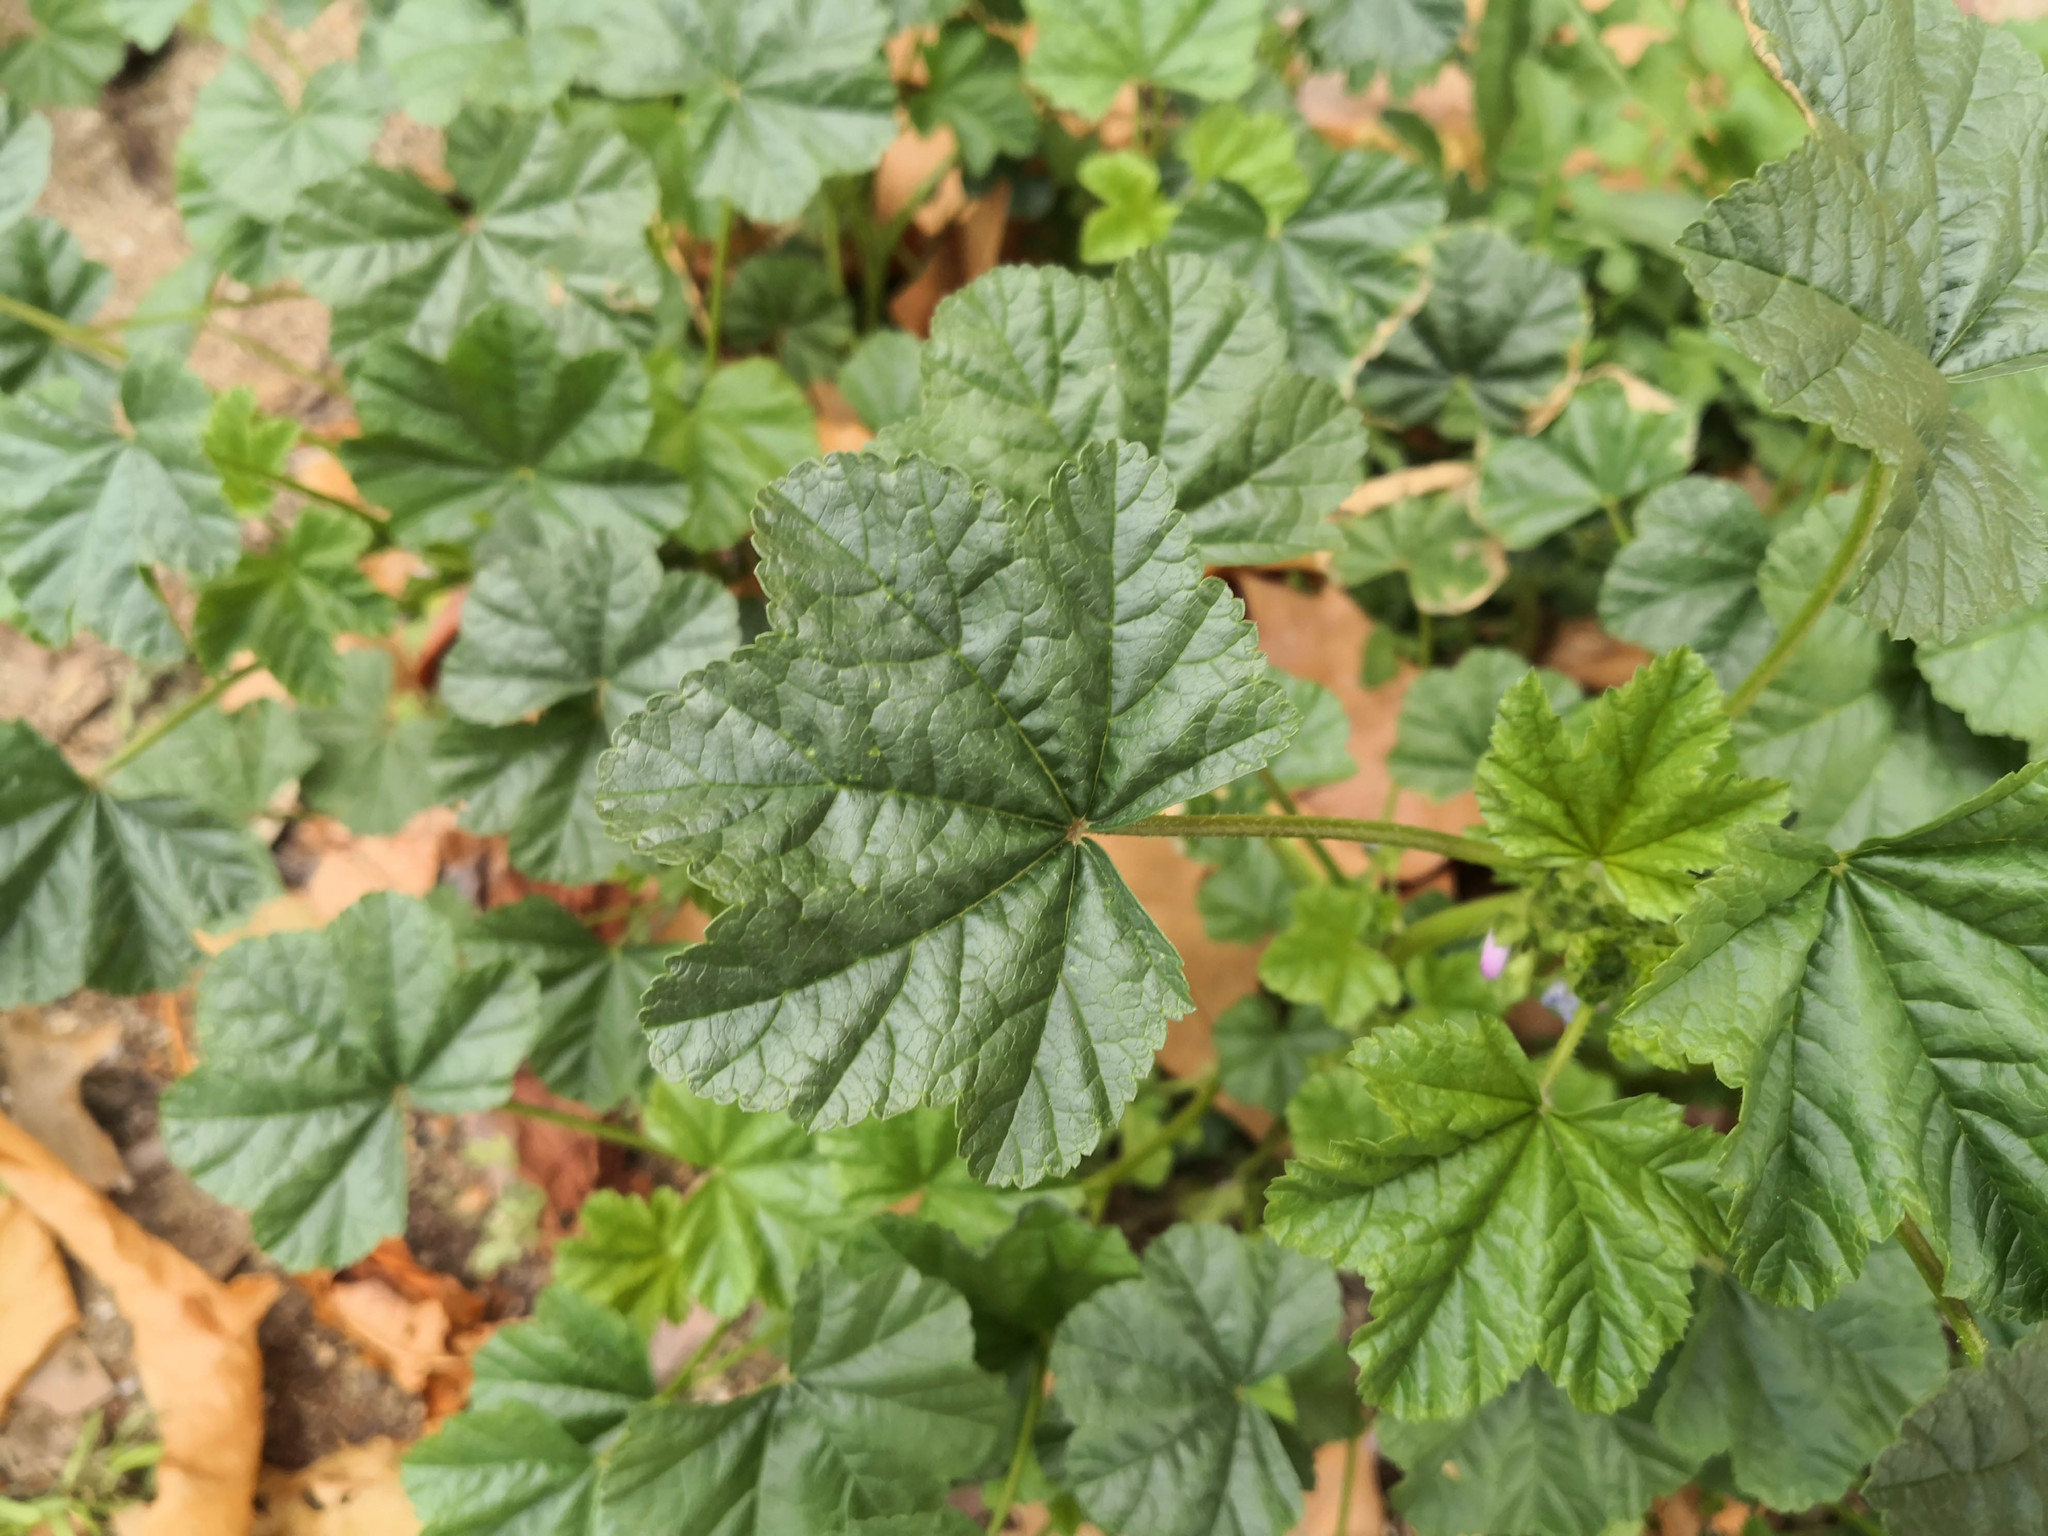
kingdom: Plantae
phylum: Tracheophyta
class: Magnoliopsida
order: Malvales
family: Malvaceae
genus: Malva
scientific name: Malva sylvestris
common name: Common mallow
